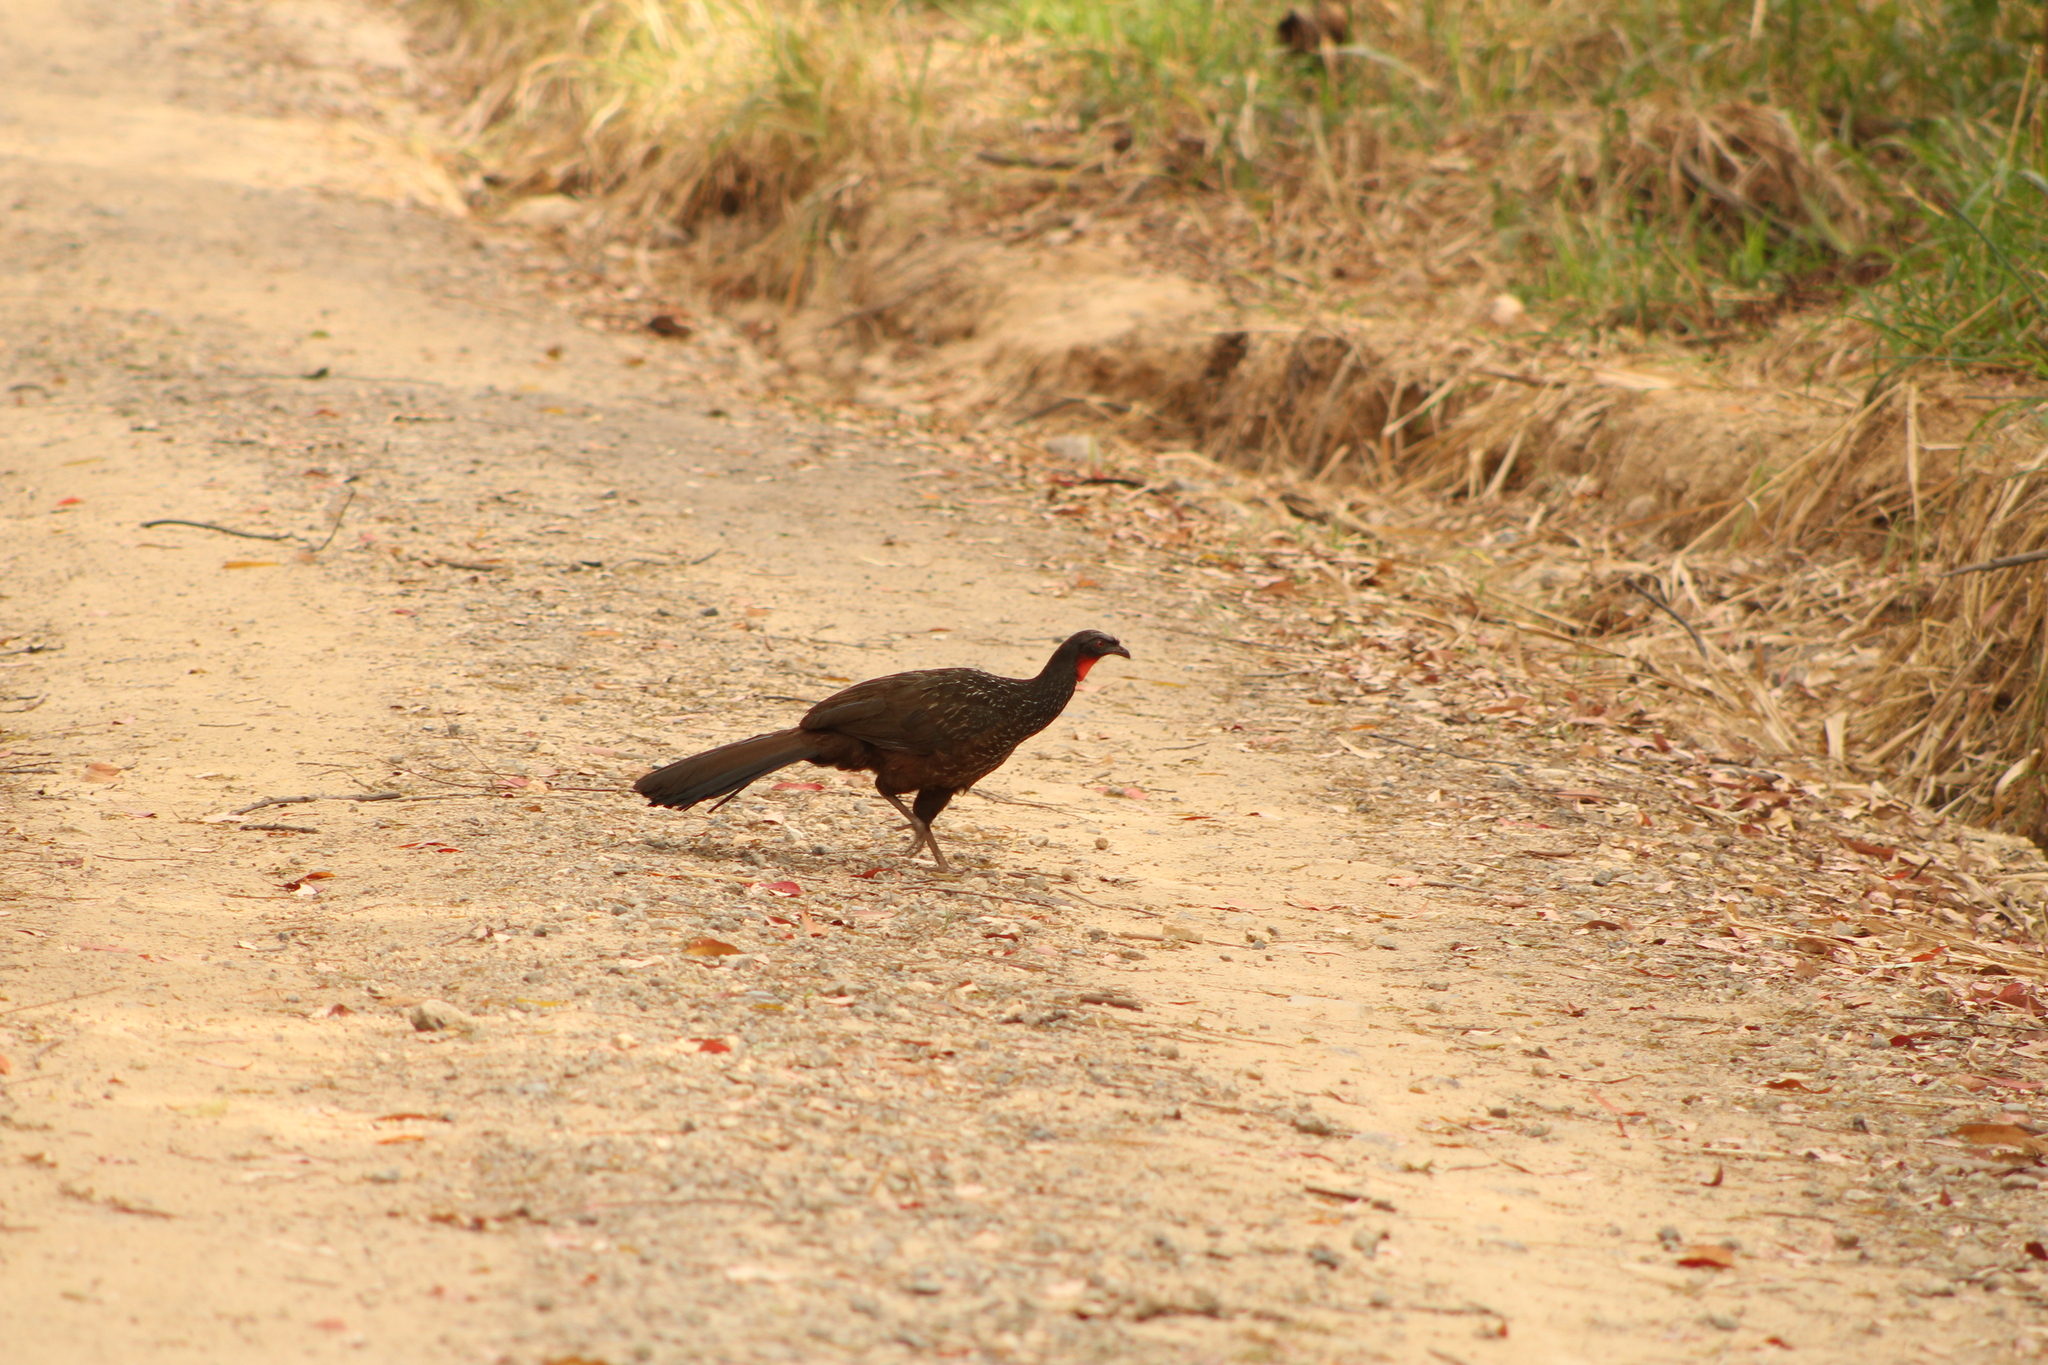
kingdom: Animalia
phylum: Chordata
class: Aves
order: Galliformes
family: Cracidae
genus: Penelope
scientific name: Penelope obscura
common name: Dusky-legged guan
